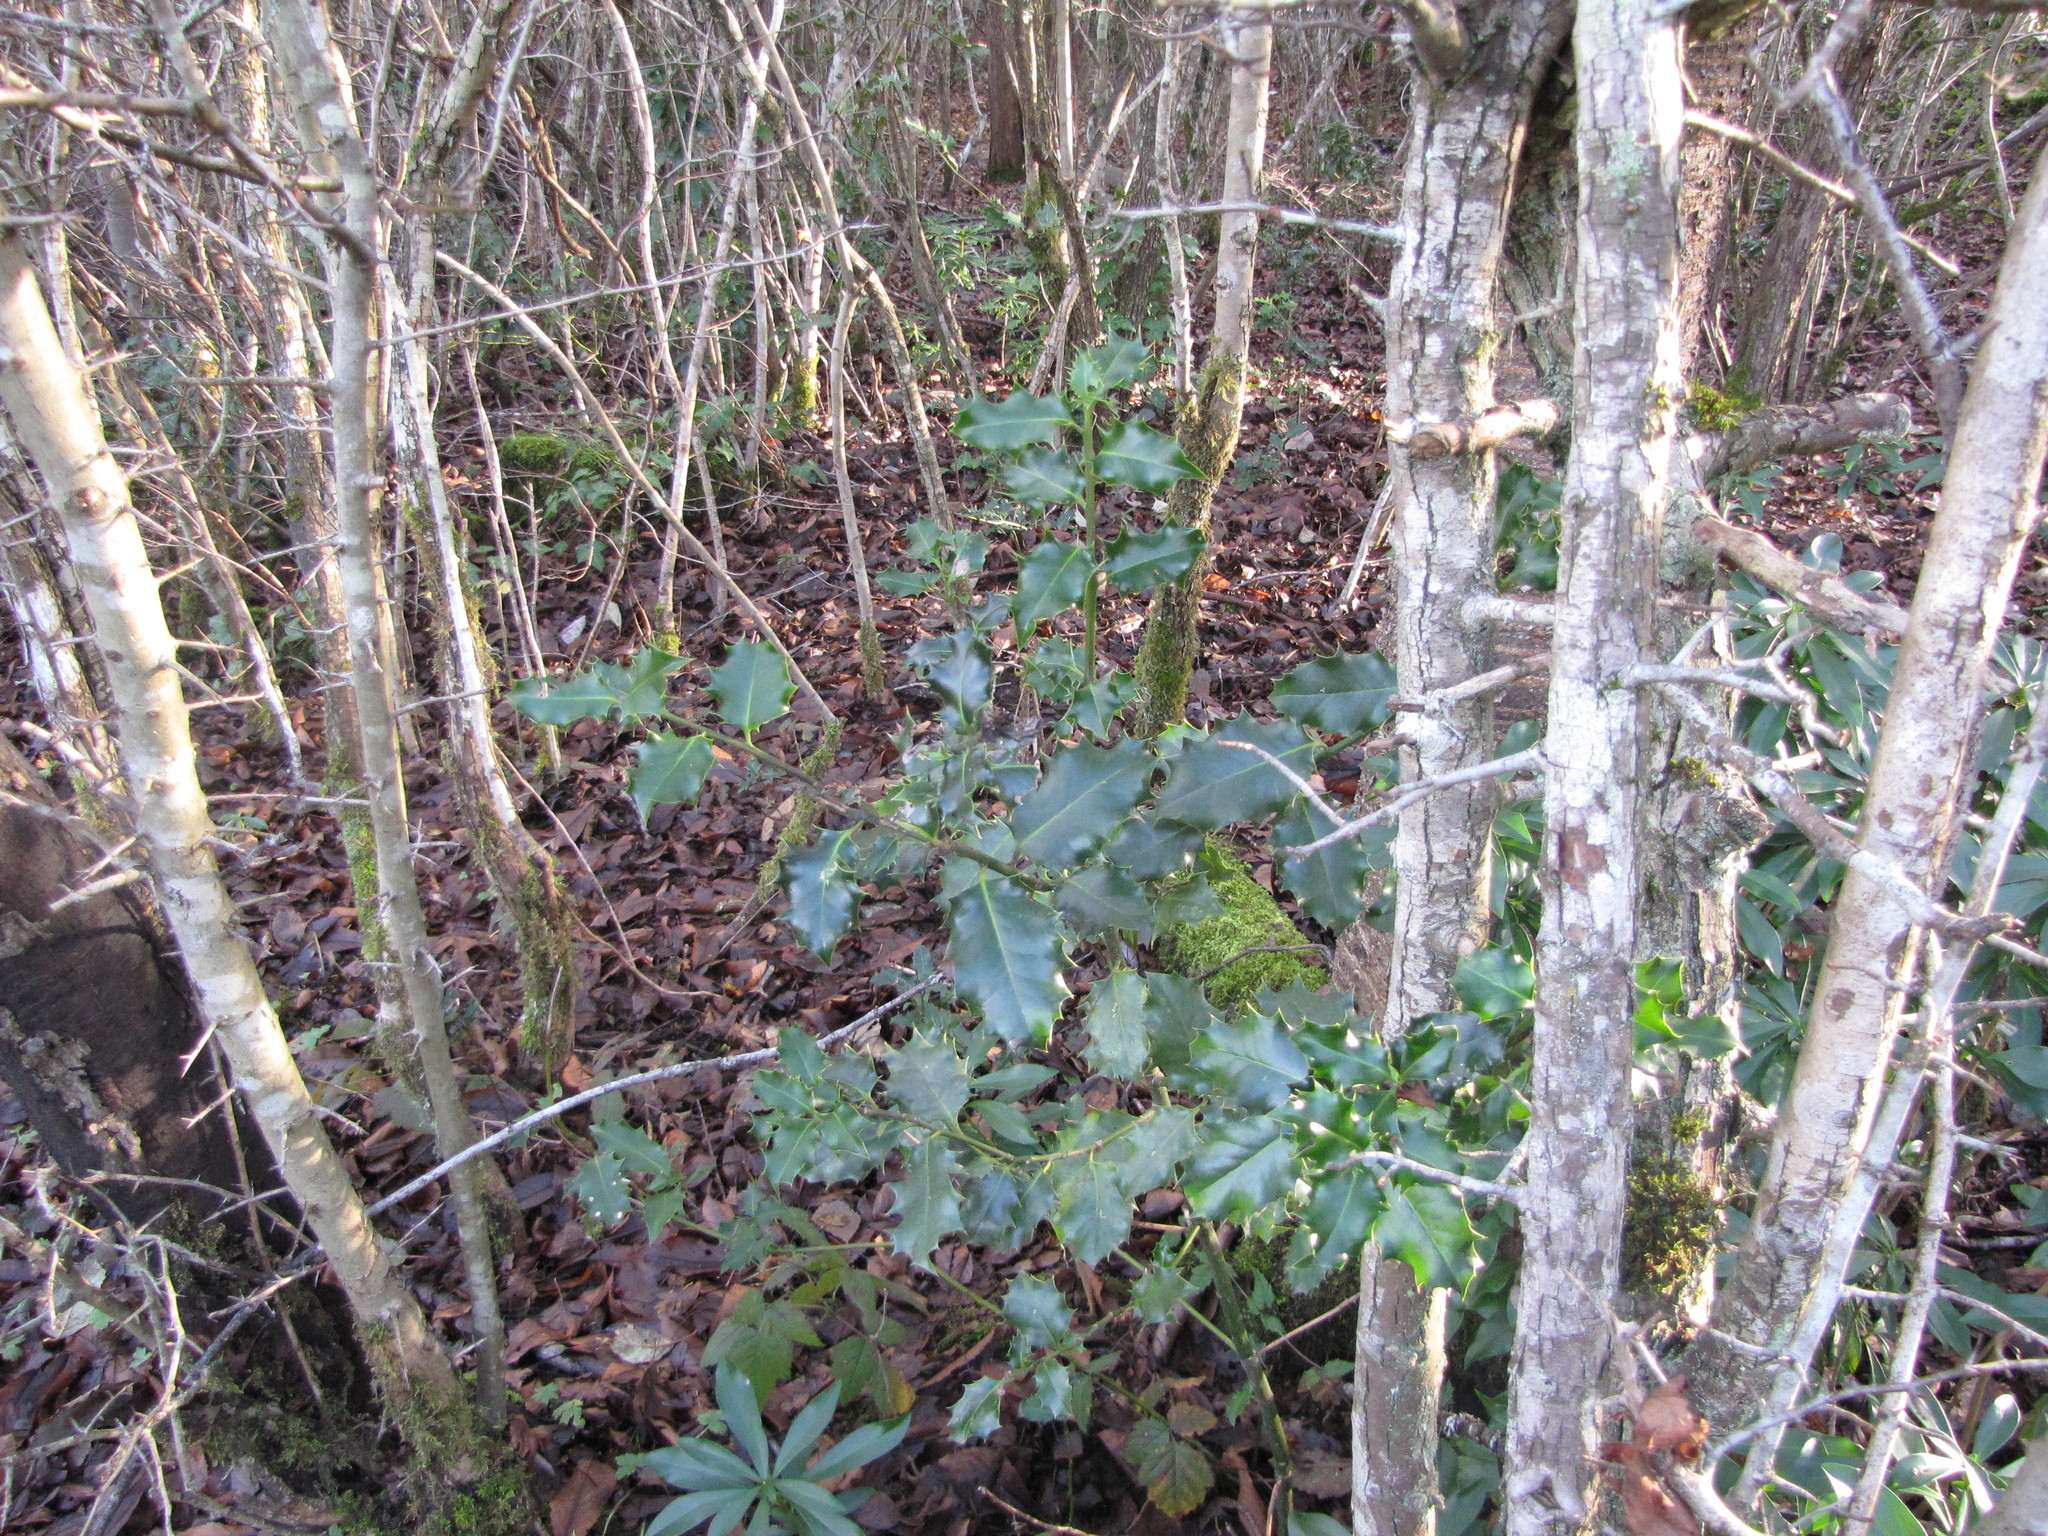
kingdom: Plantae
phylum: Tracheophyta
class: Magnoliopsida
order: Aquifoliales
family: Aquifoliaceae
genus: Ilex
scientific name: Ilex aquifolium
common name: English holly
